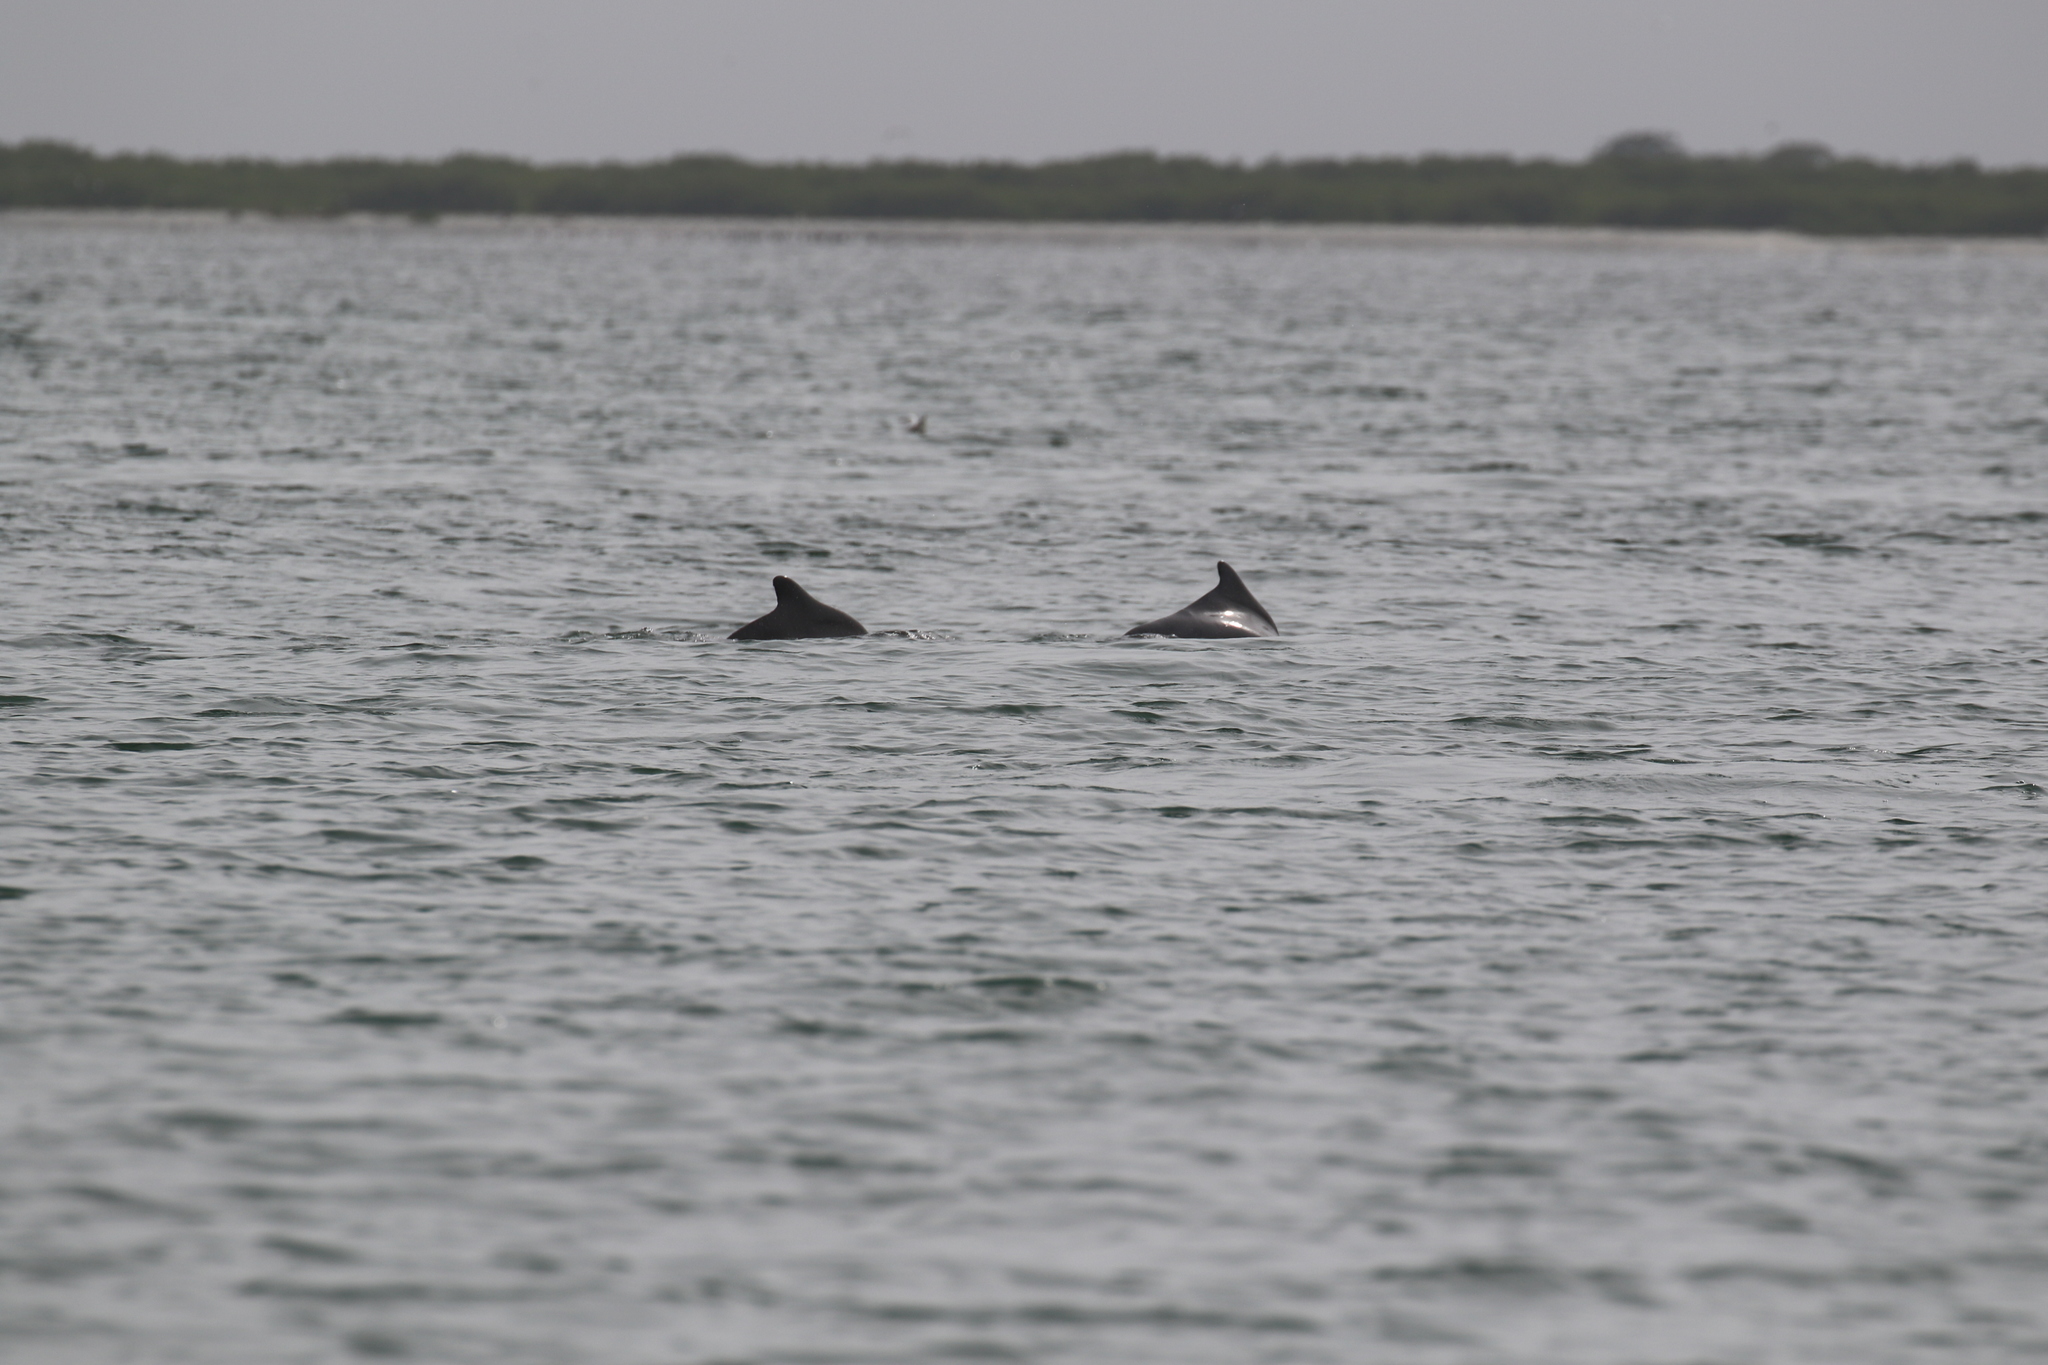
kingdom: Animalia
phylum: Chordata
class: Mammalia
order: Cetacea
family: Delphinidae
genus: Sousa
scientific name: Sousa teuszii
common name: Atlantic humpbacked dolphin
